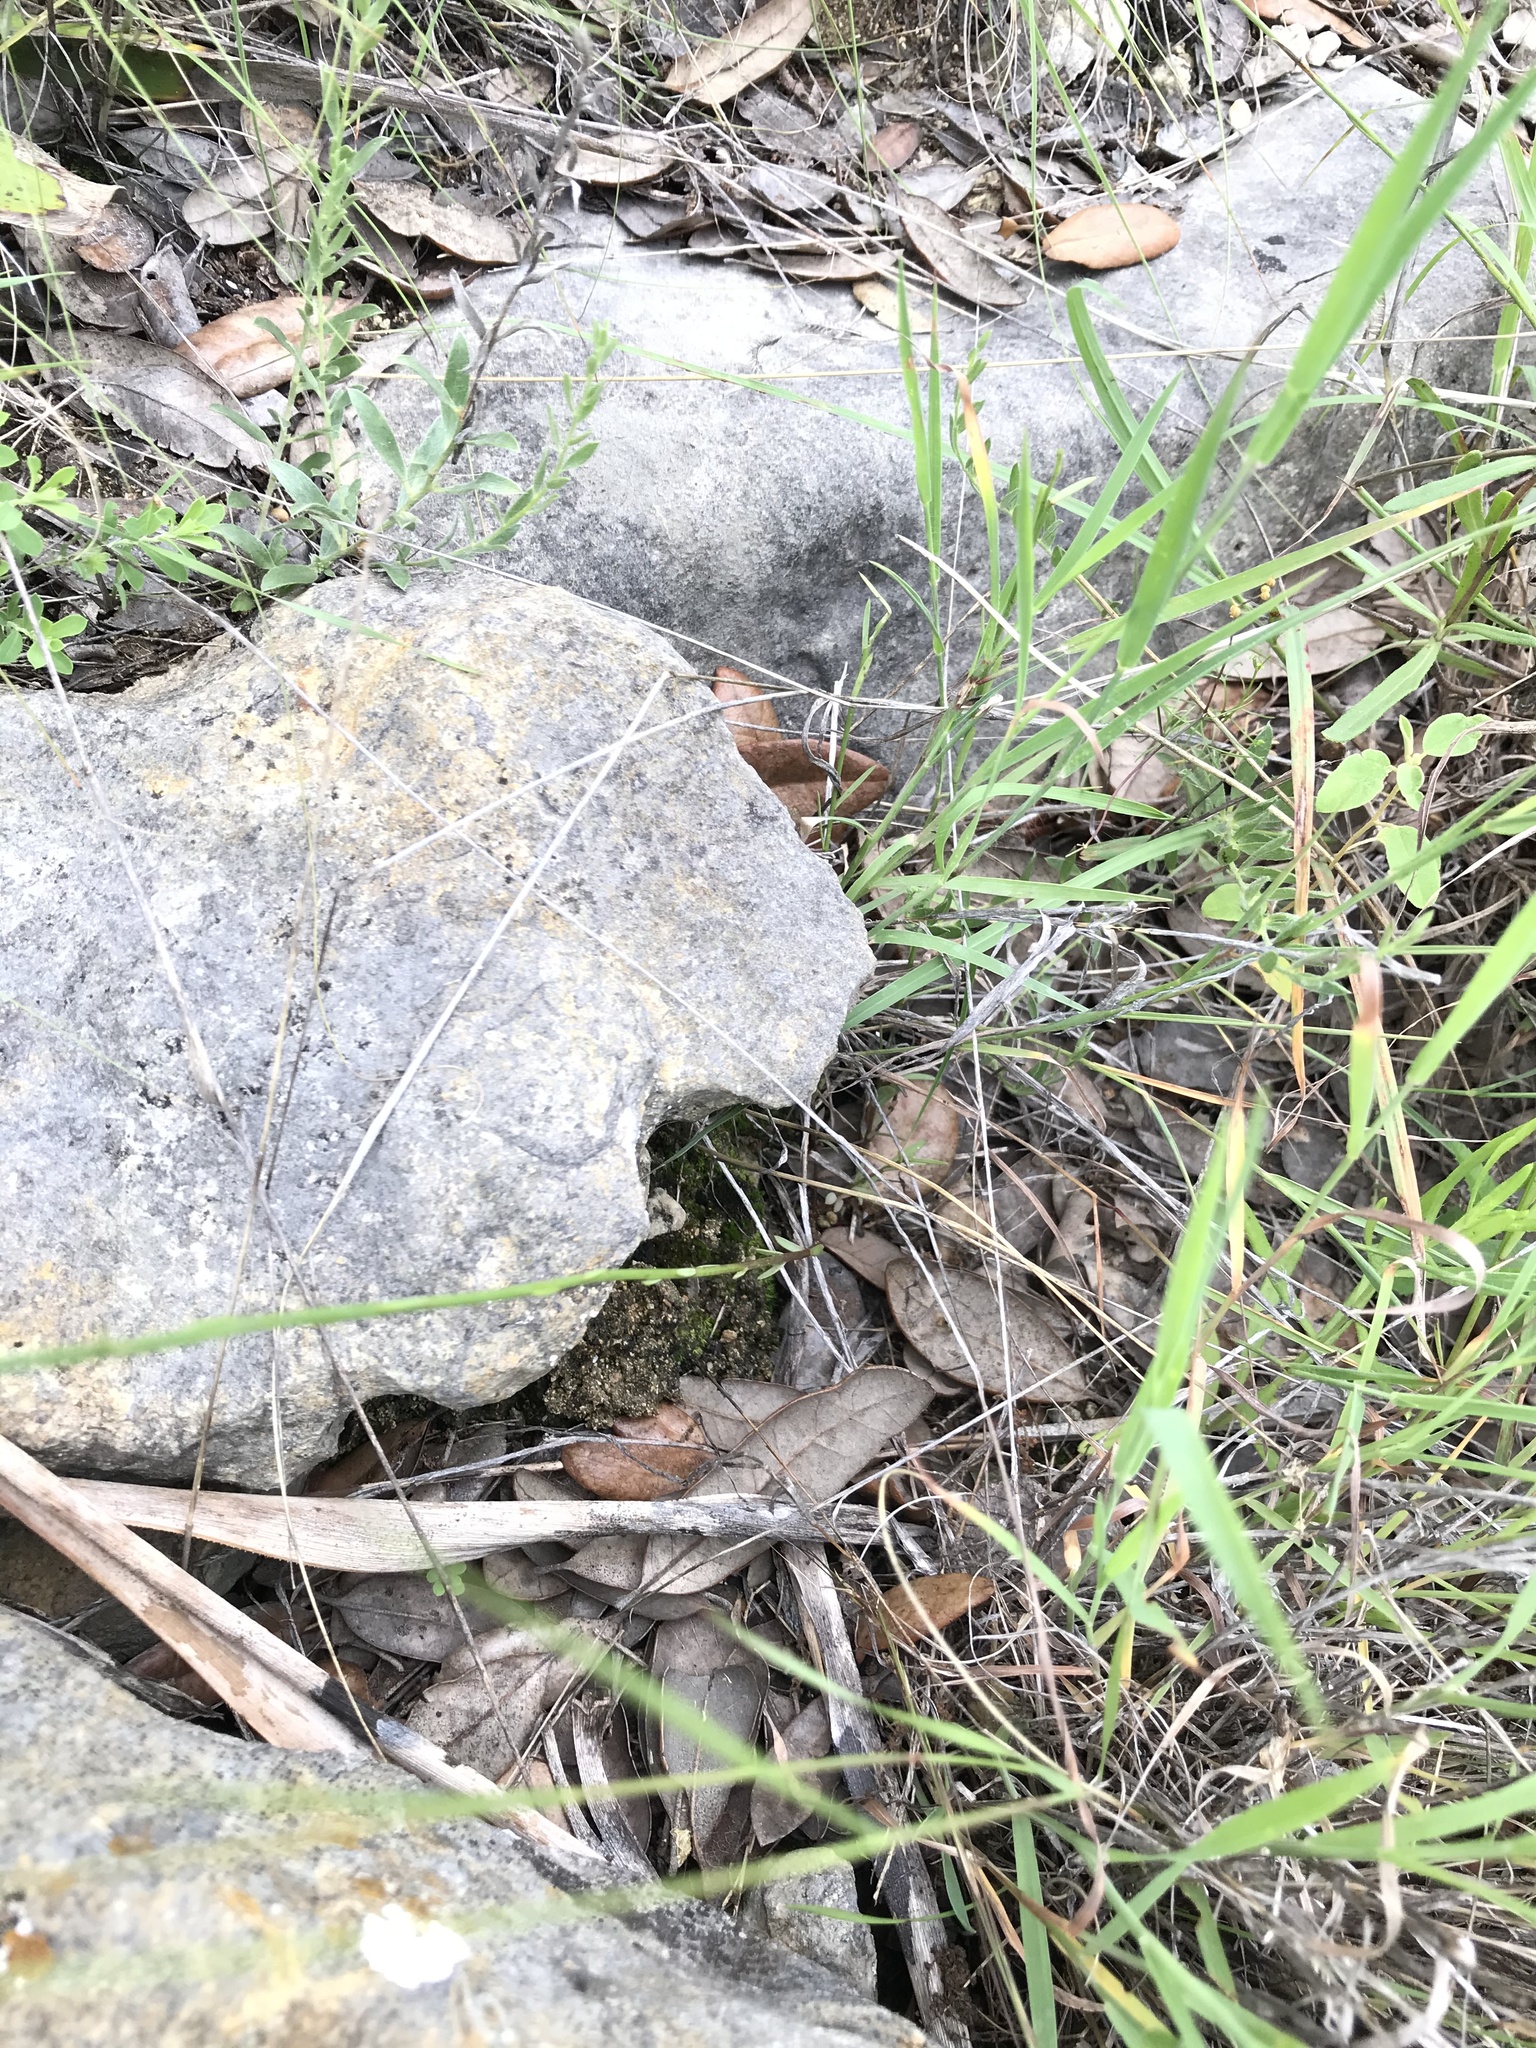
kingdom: Plantae
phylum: Tracheophyta
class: Magnoliopsida
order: Malpighiales
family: Linaceae
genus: Linum
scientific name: Linum rupestre
